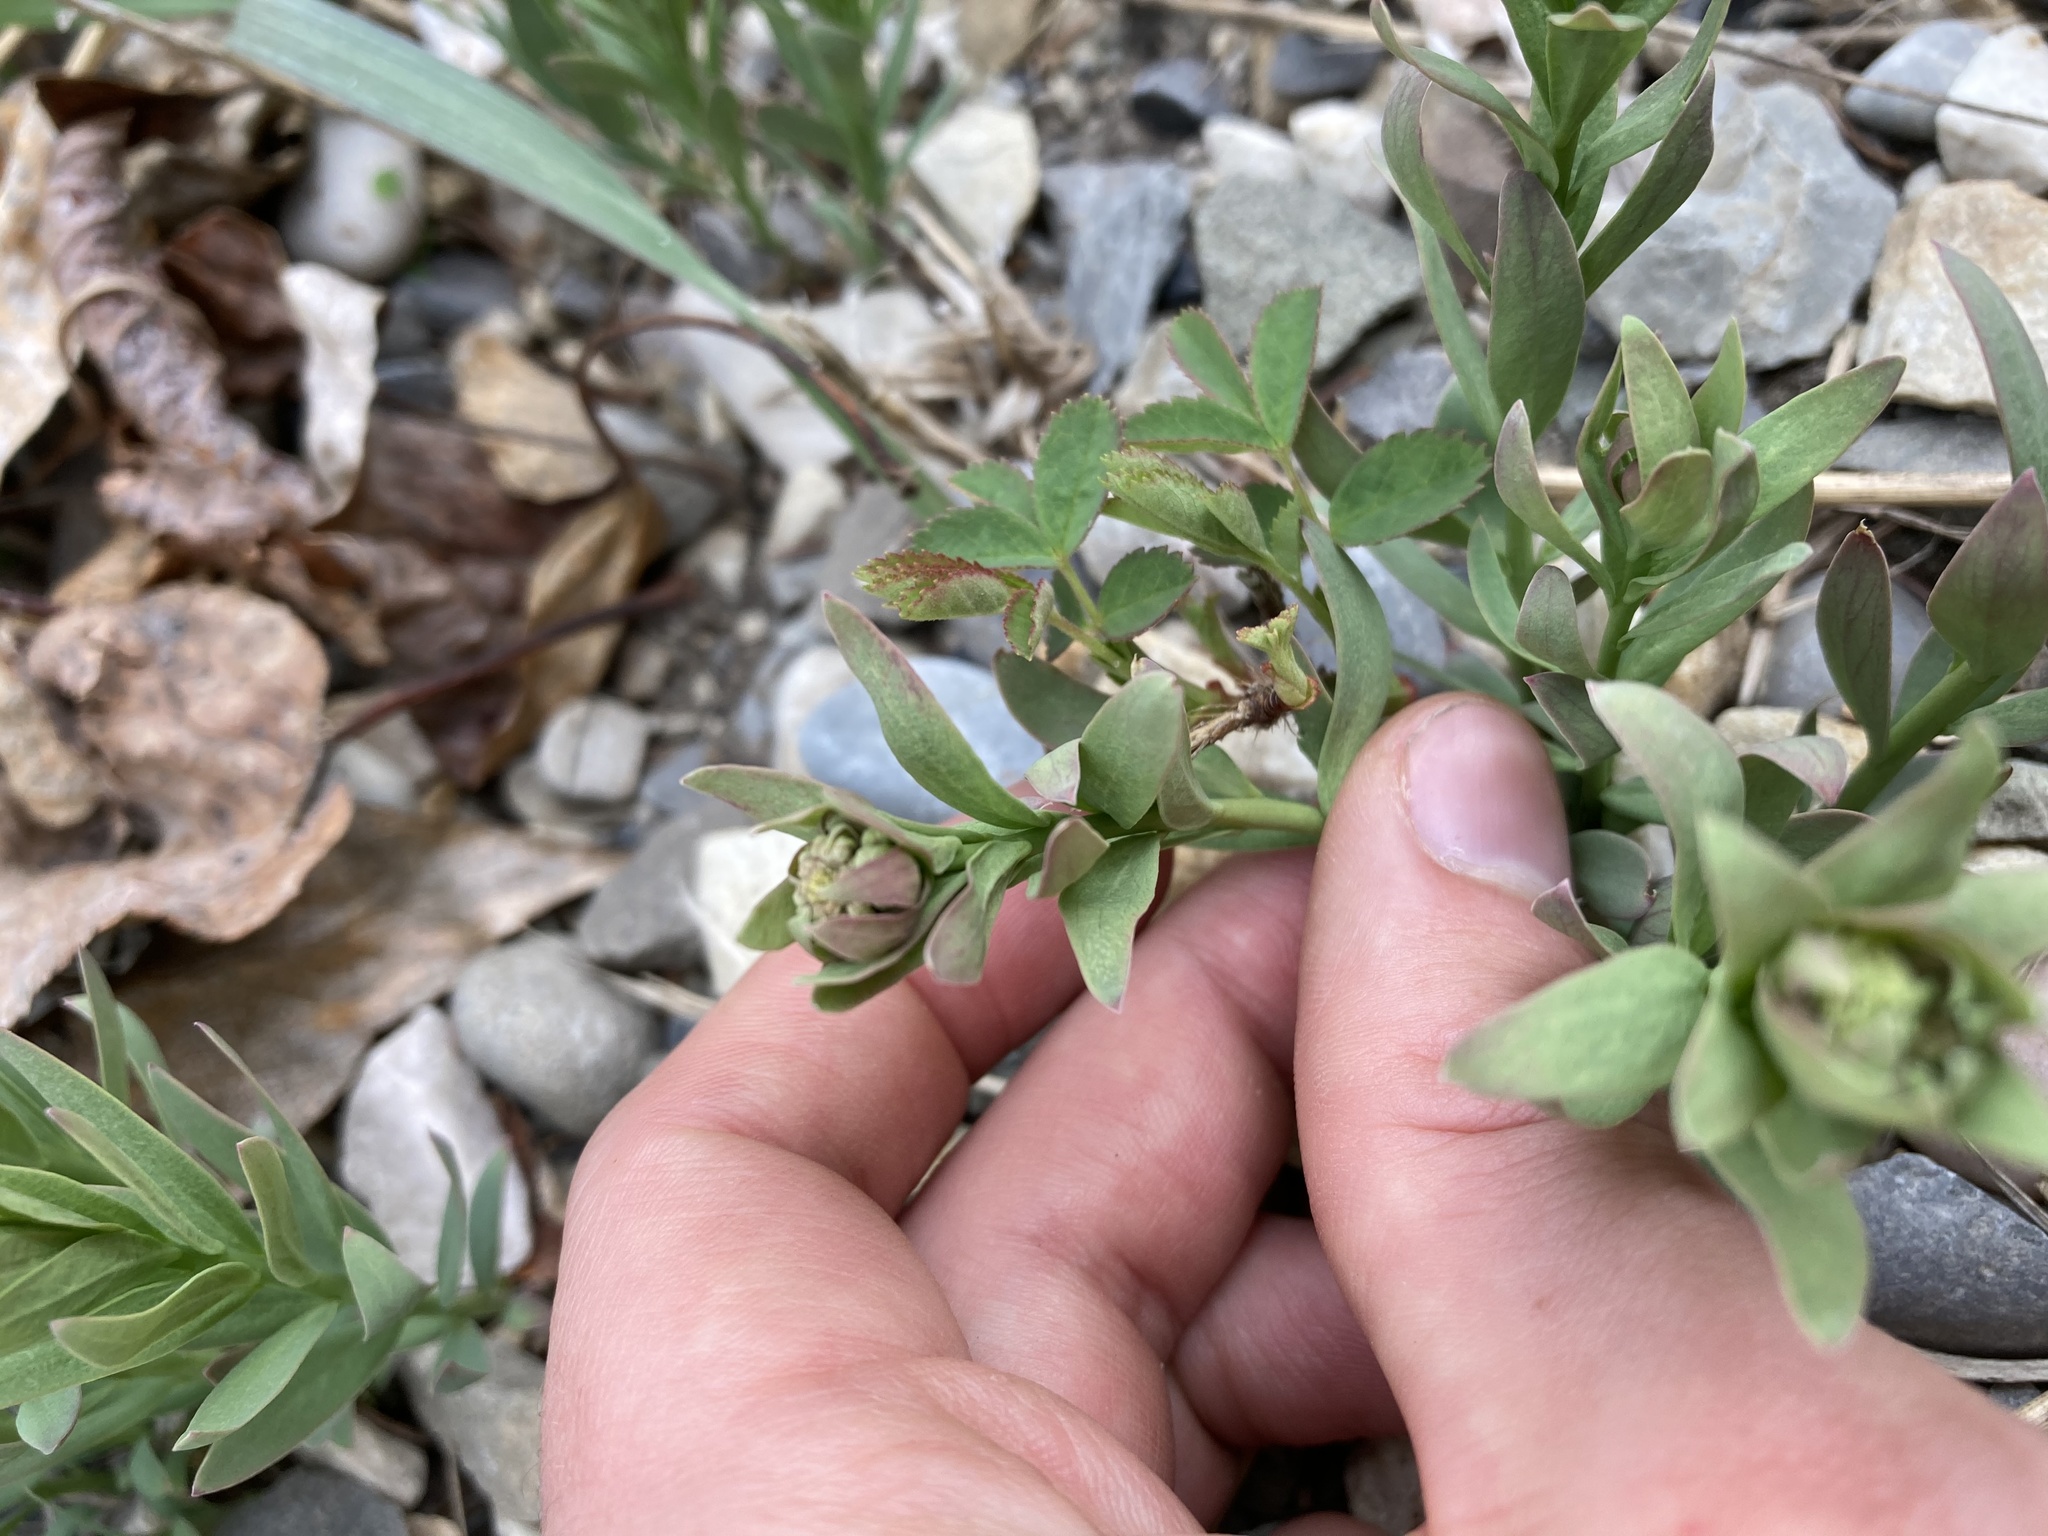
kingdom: Plantae
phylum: Tracheophyta
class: Magnoliopsida
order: Santalales
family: Comandraceae
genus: Comandra
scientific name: Comandra umbellata
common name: Bastard toadflax
